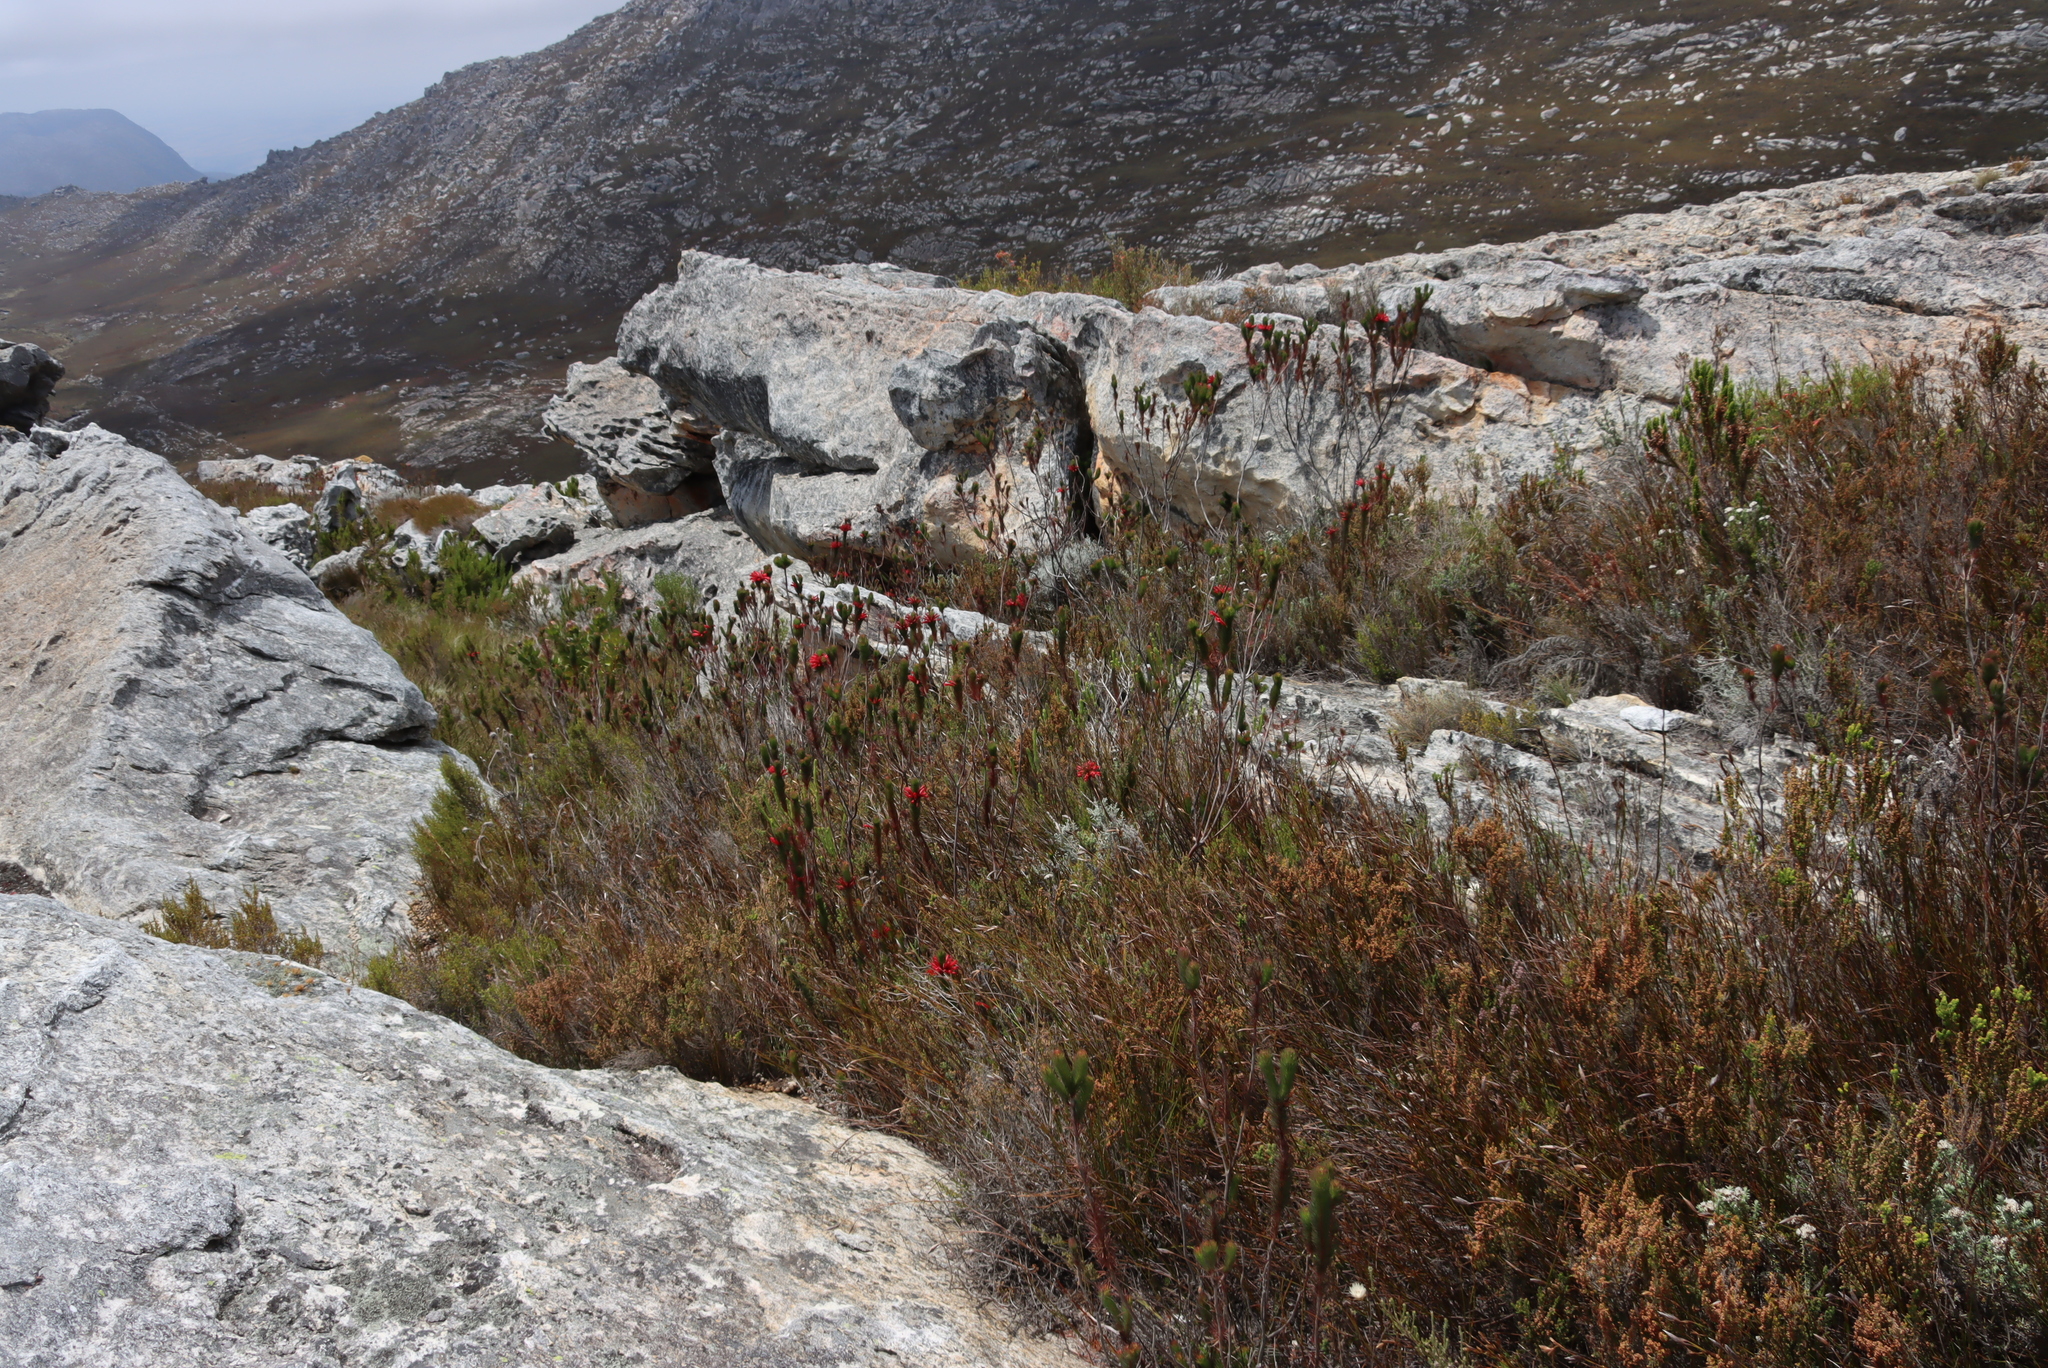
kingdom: Plantae
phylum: Tracheophyta
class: Magnoliopsida
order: Ericales
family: Ericaceae
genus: Erica
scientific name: Erica vestita
